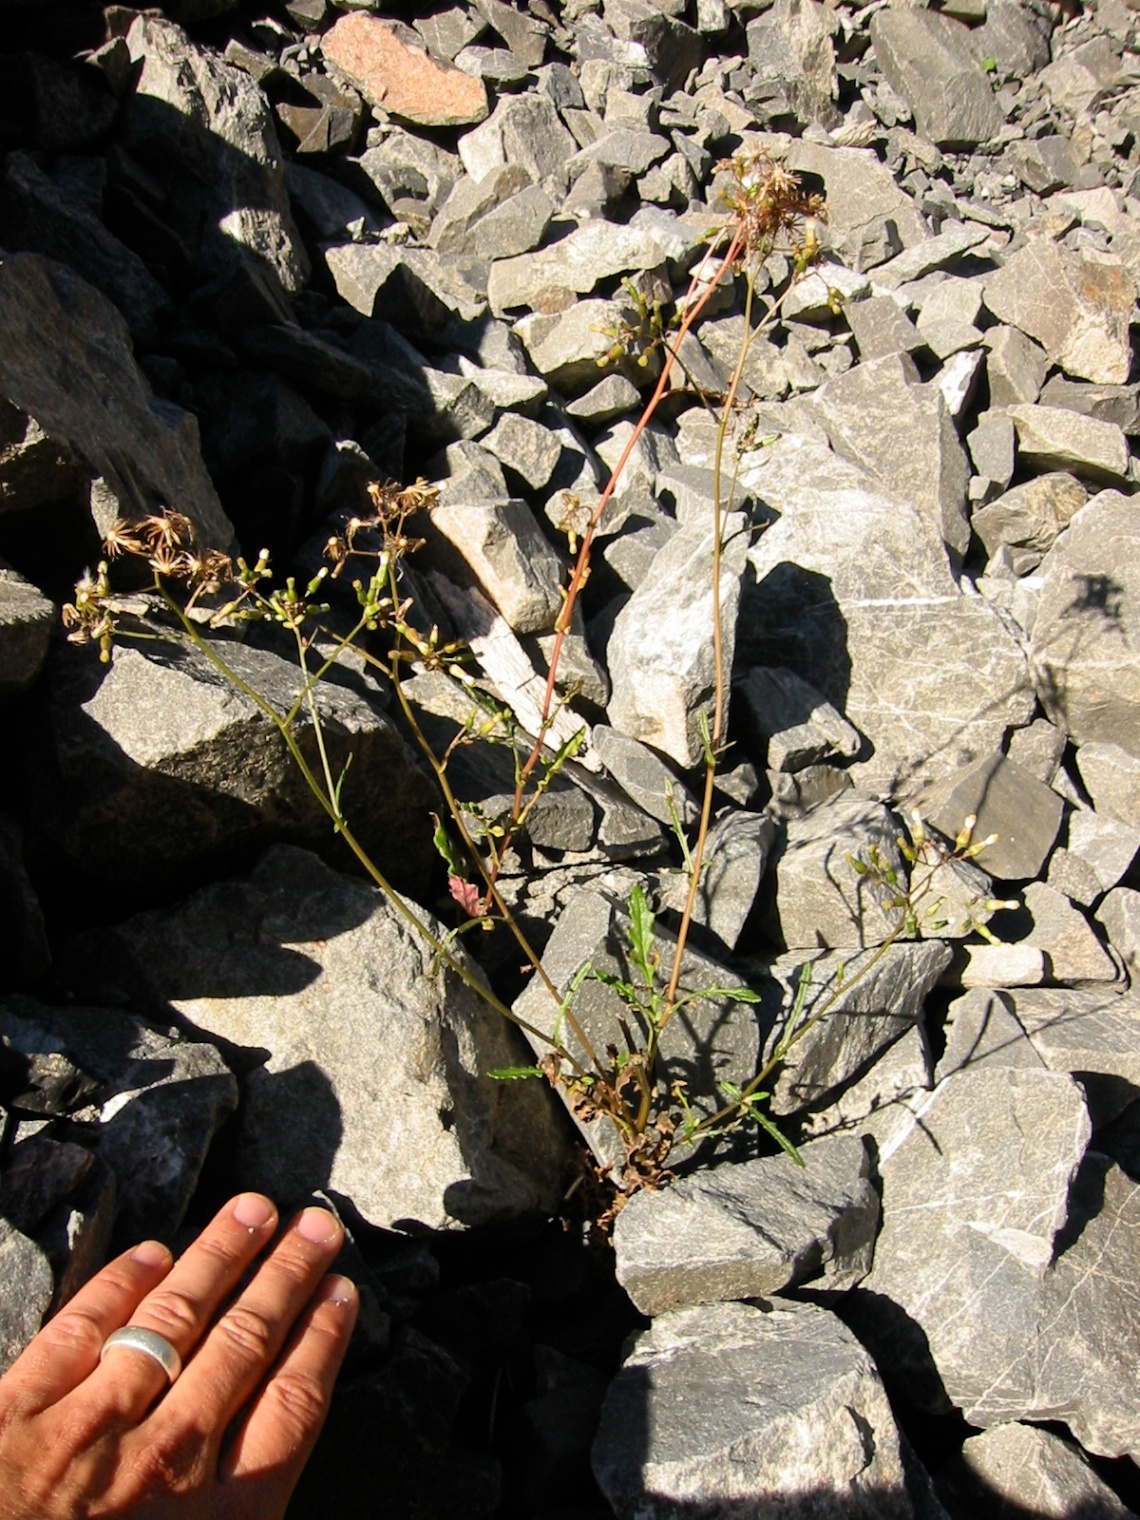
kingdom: Plantae
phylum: Tracheophyta
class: Magnoliopsida
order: Asterales
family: Asteraceae
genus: Senecio
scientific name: Senecio wairauensis
